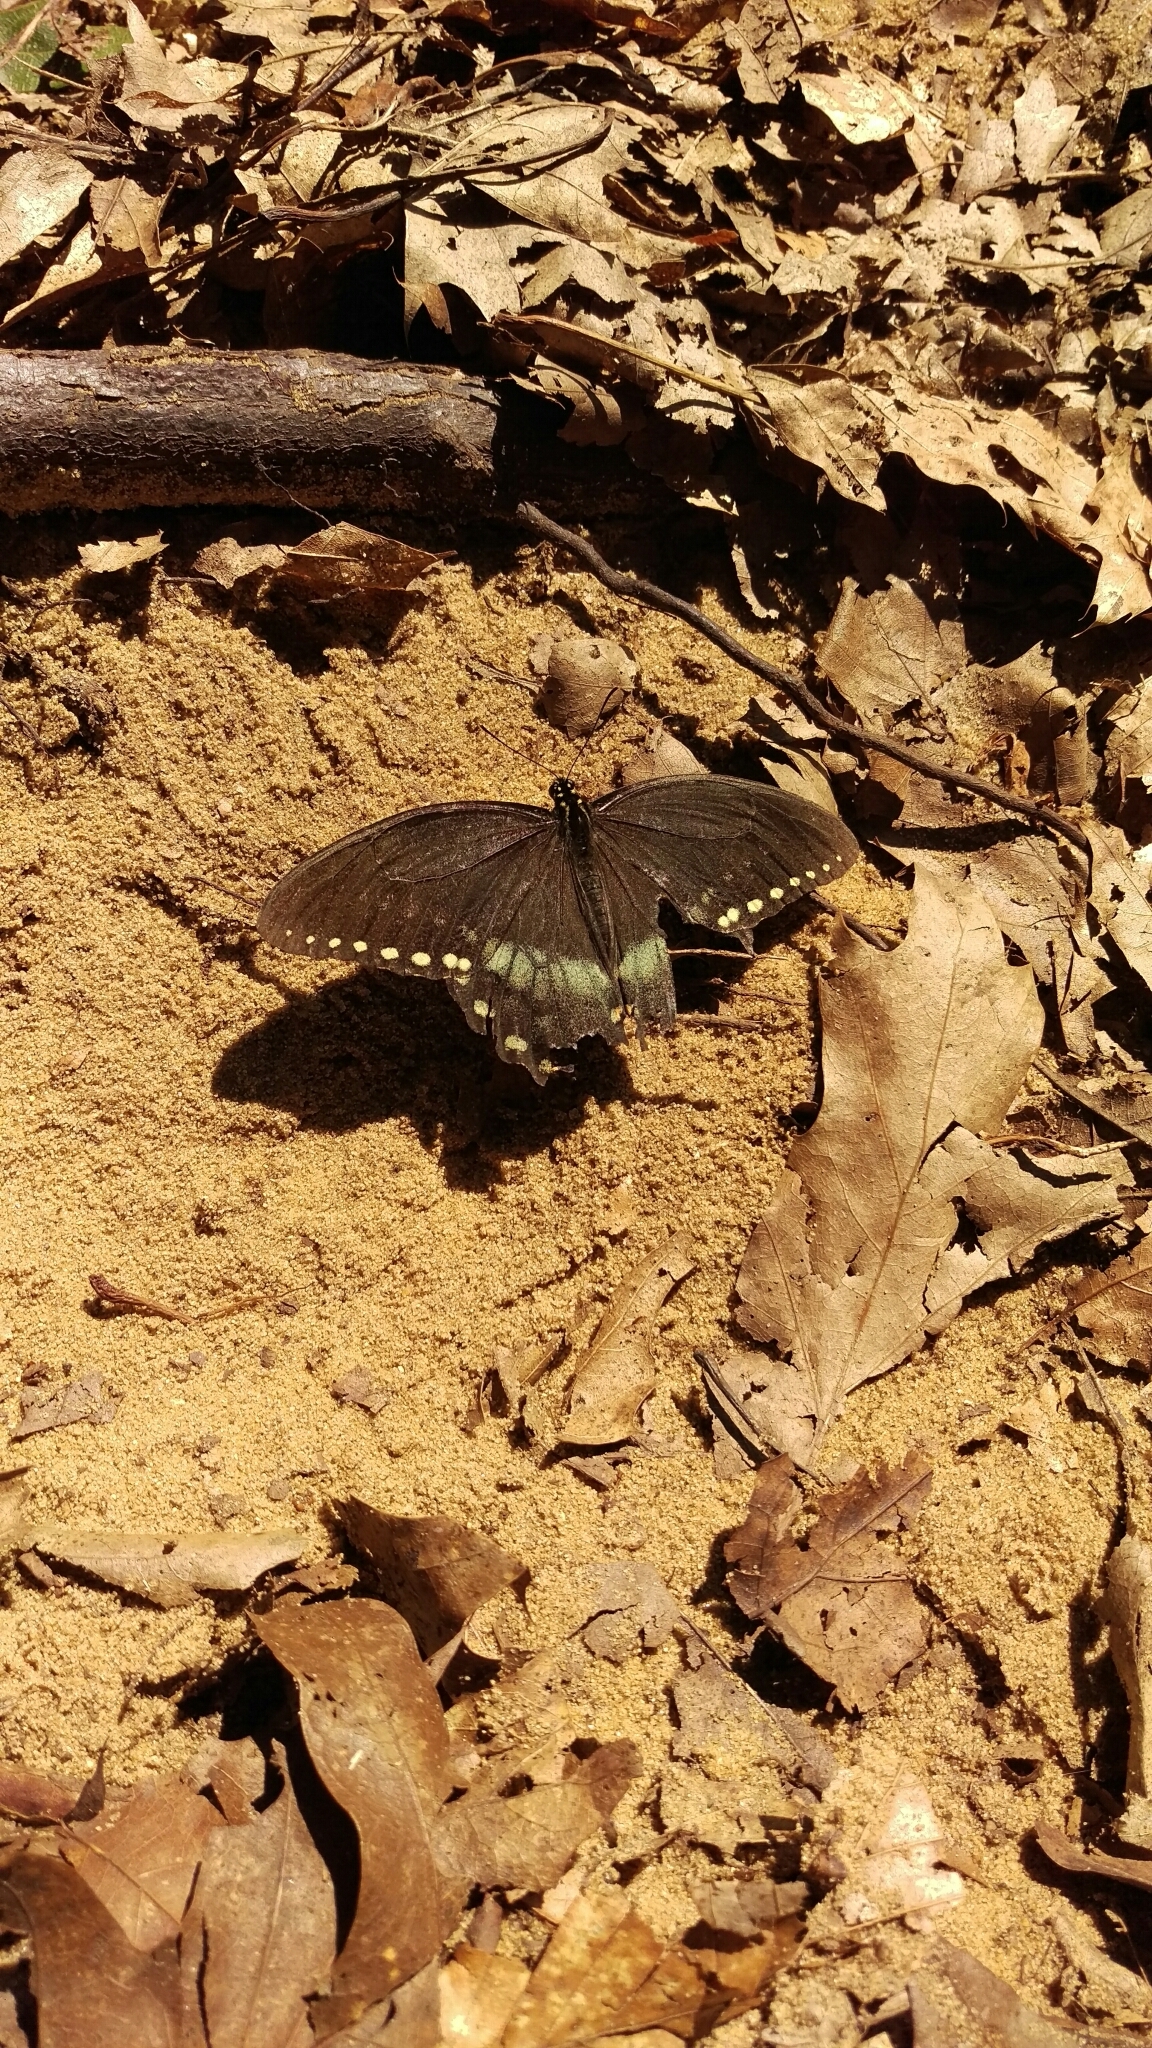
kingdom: Animalia
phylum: Arthropoda
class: Insecta
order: Lepidoptera
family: Papilionidae
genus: Papilio
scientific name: Papilio troilus
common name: Spicebush swallowtail
